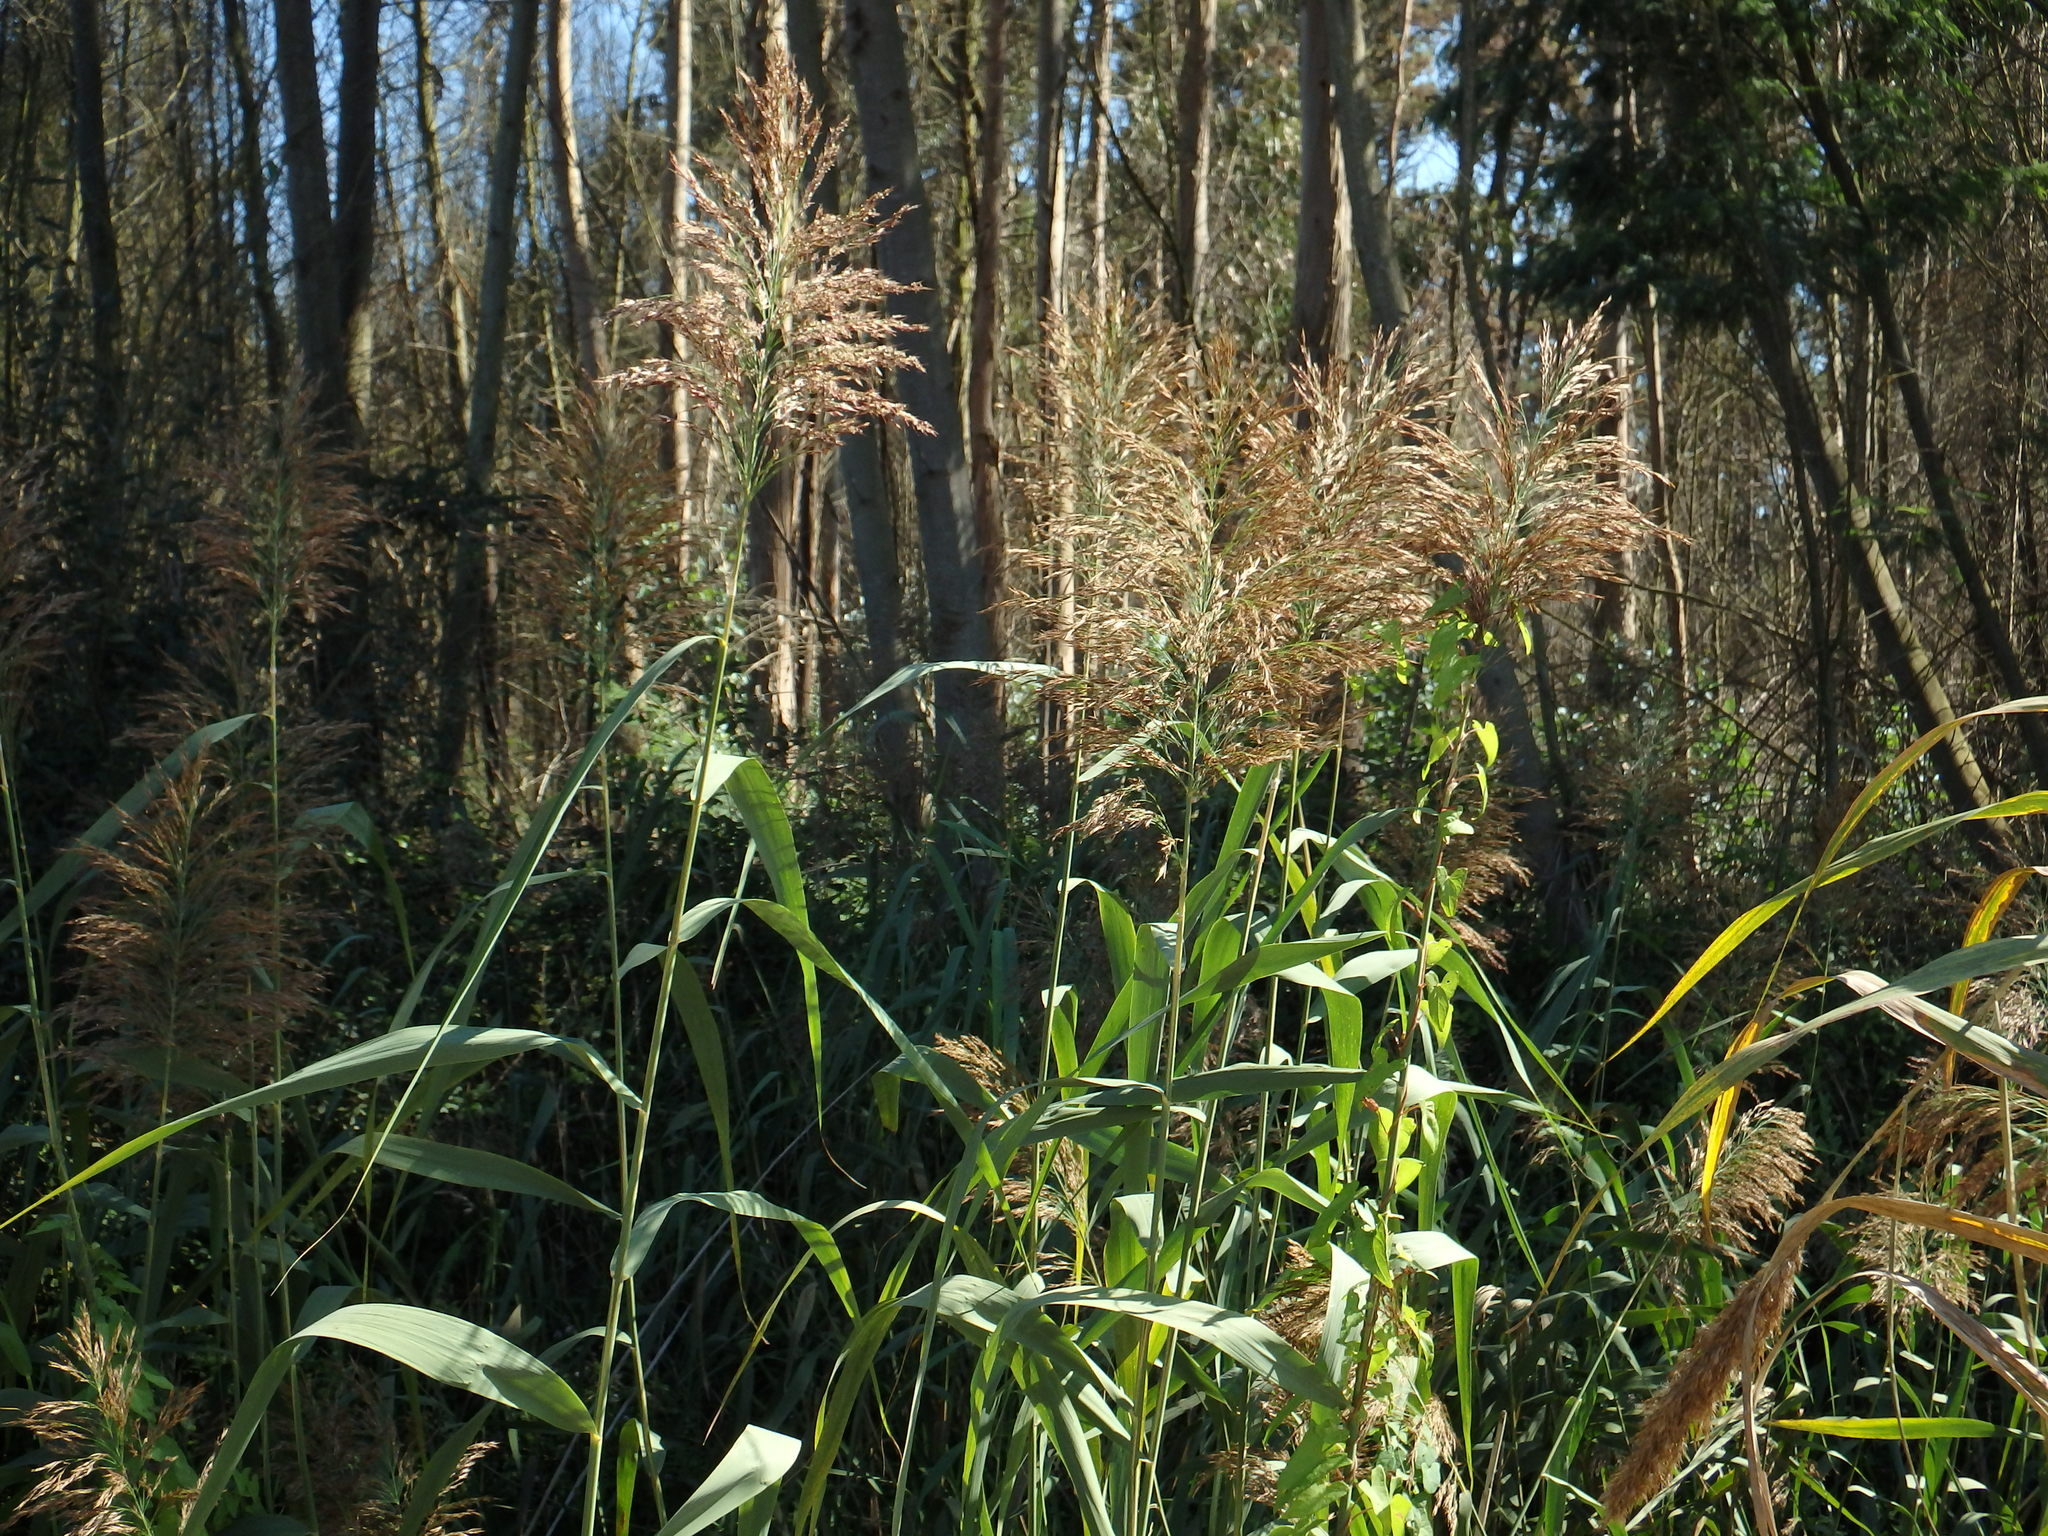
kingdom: Plantae
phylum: Tracheophyta
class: Liliopsida
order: Poales
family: Poaceae
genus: Phragmites
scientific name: Phragmites australis
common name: Common reed
